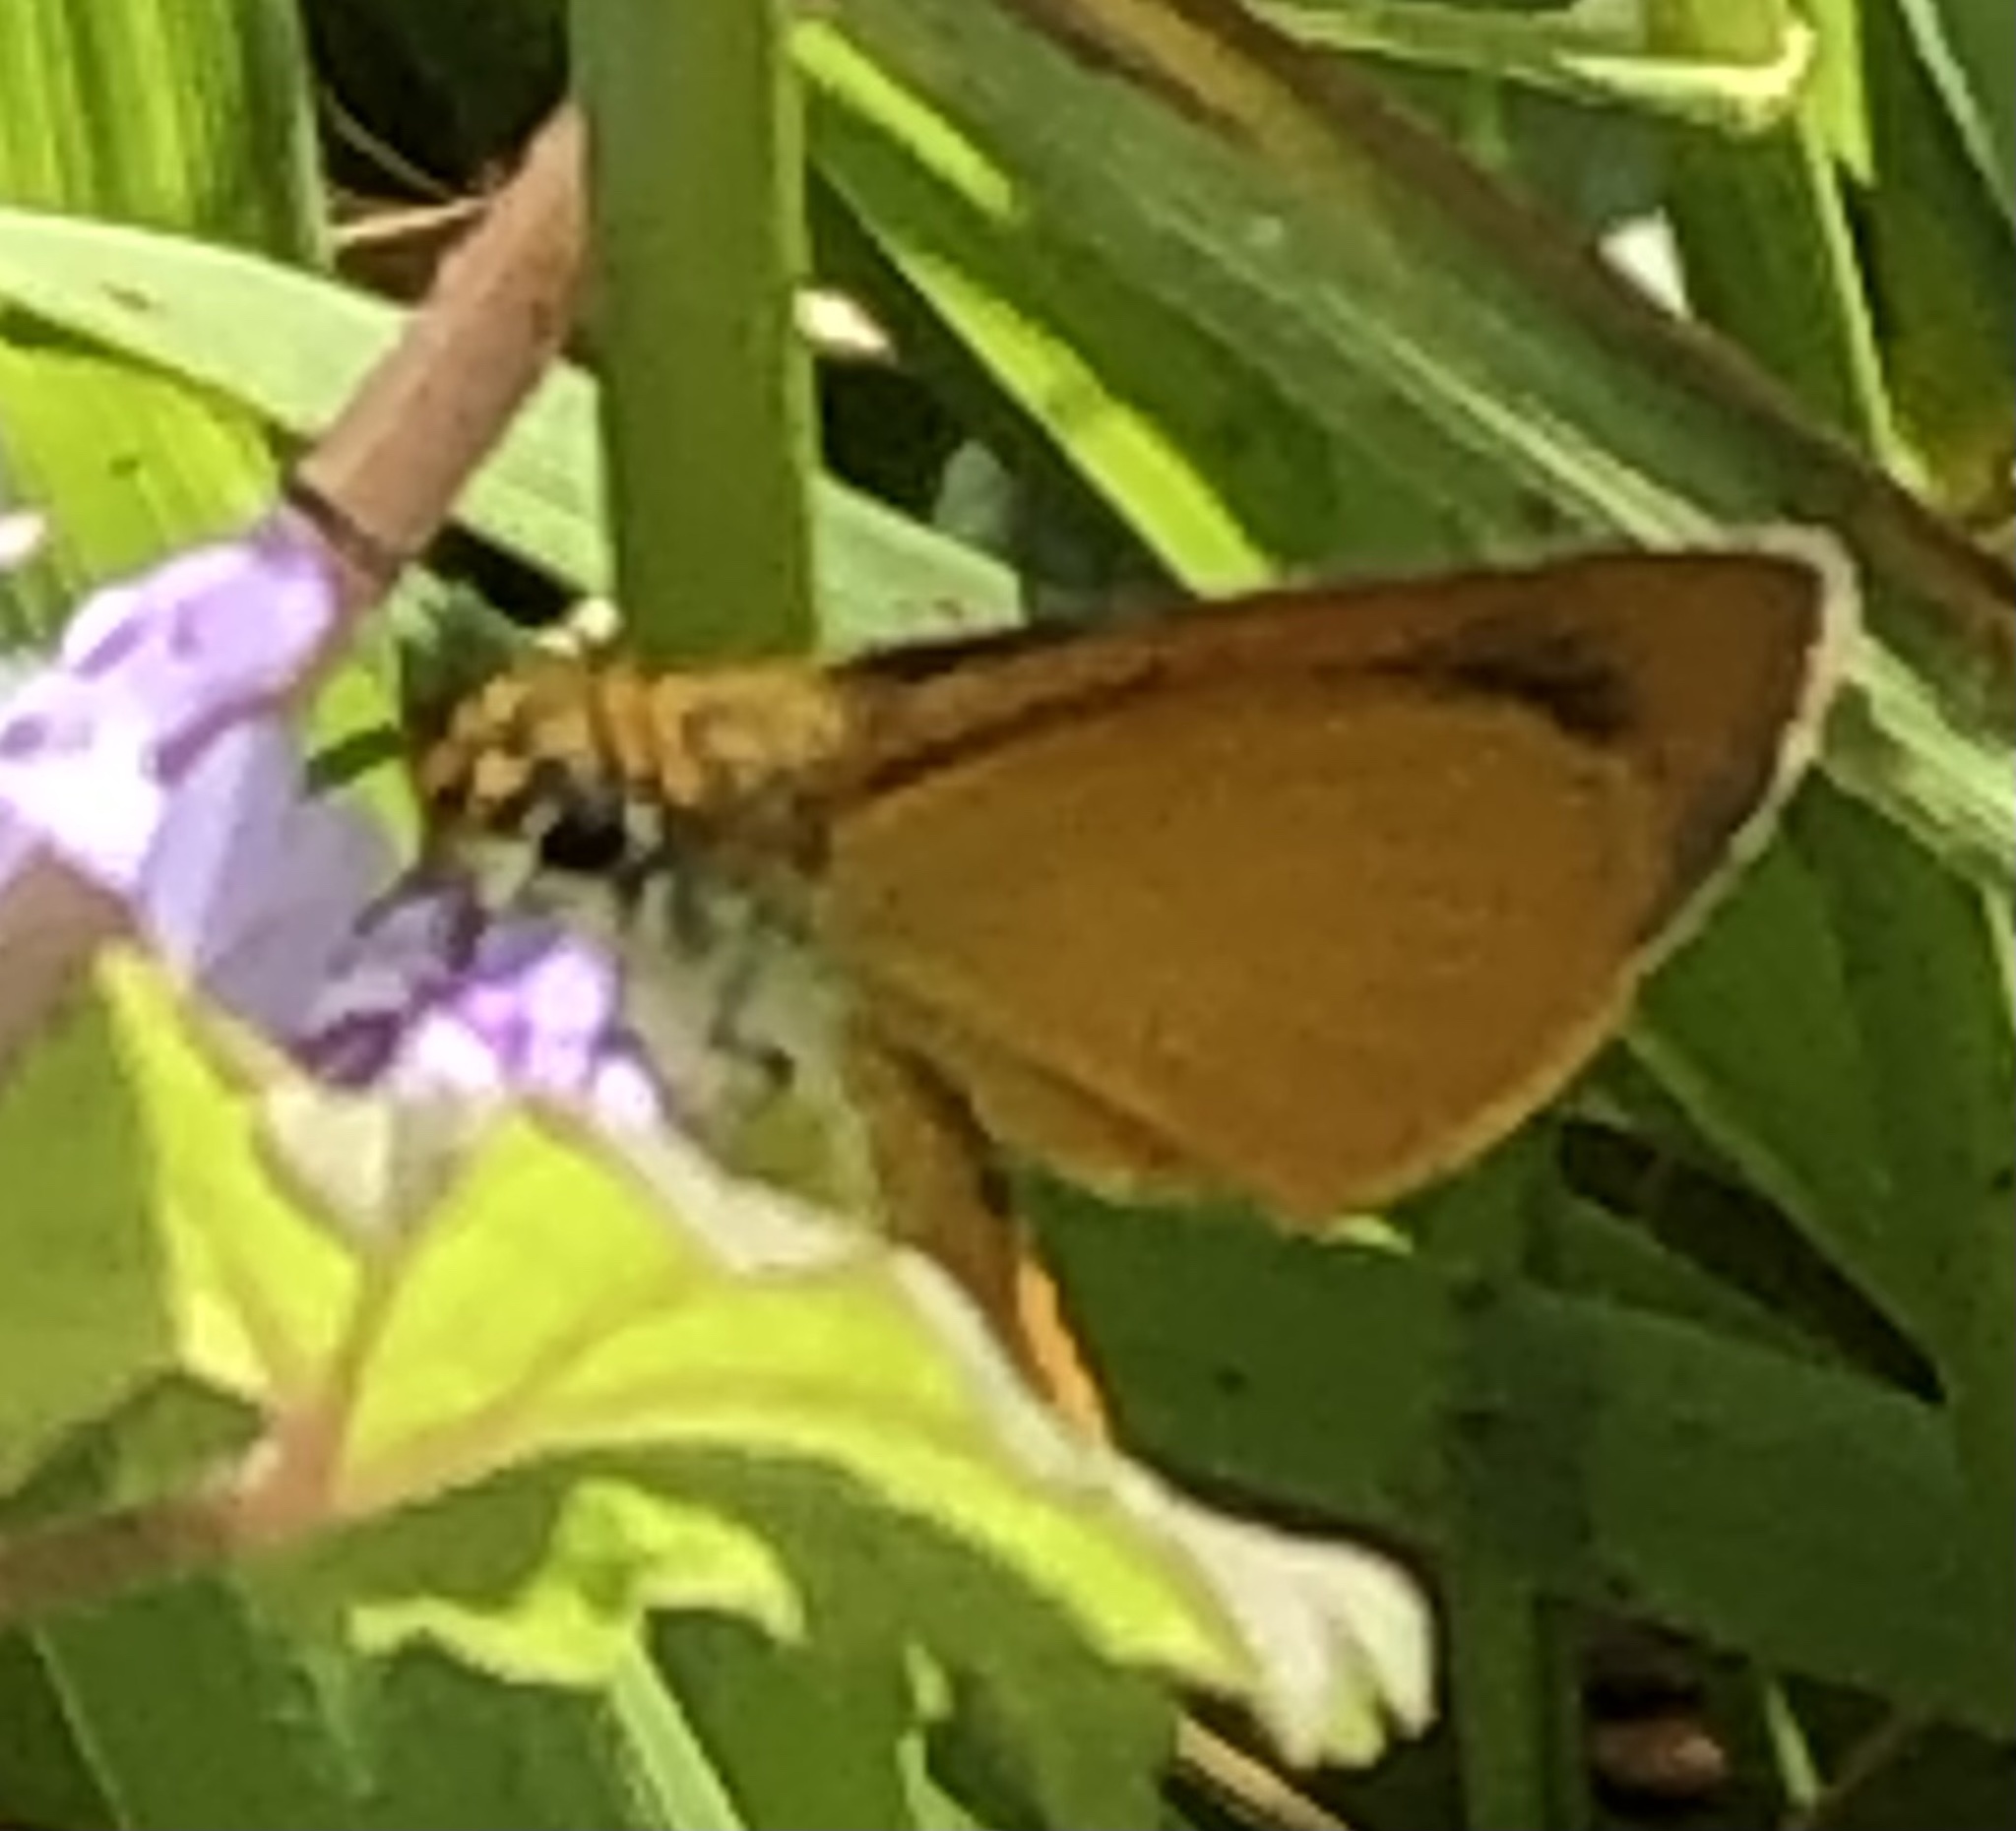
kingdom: Animalia
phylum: Arthropoda
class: Insecta
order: Lepidoptera
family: Hesperiidae
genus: Ancyloxypha
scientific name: Ancyloxypha numitor
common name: Least skipper
